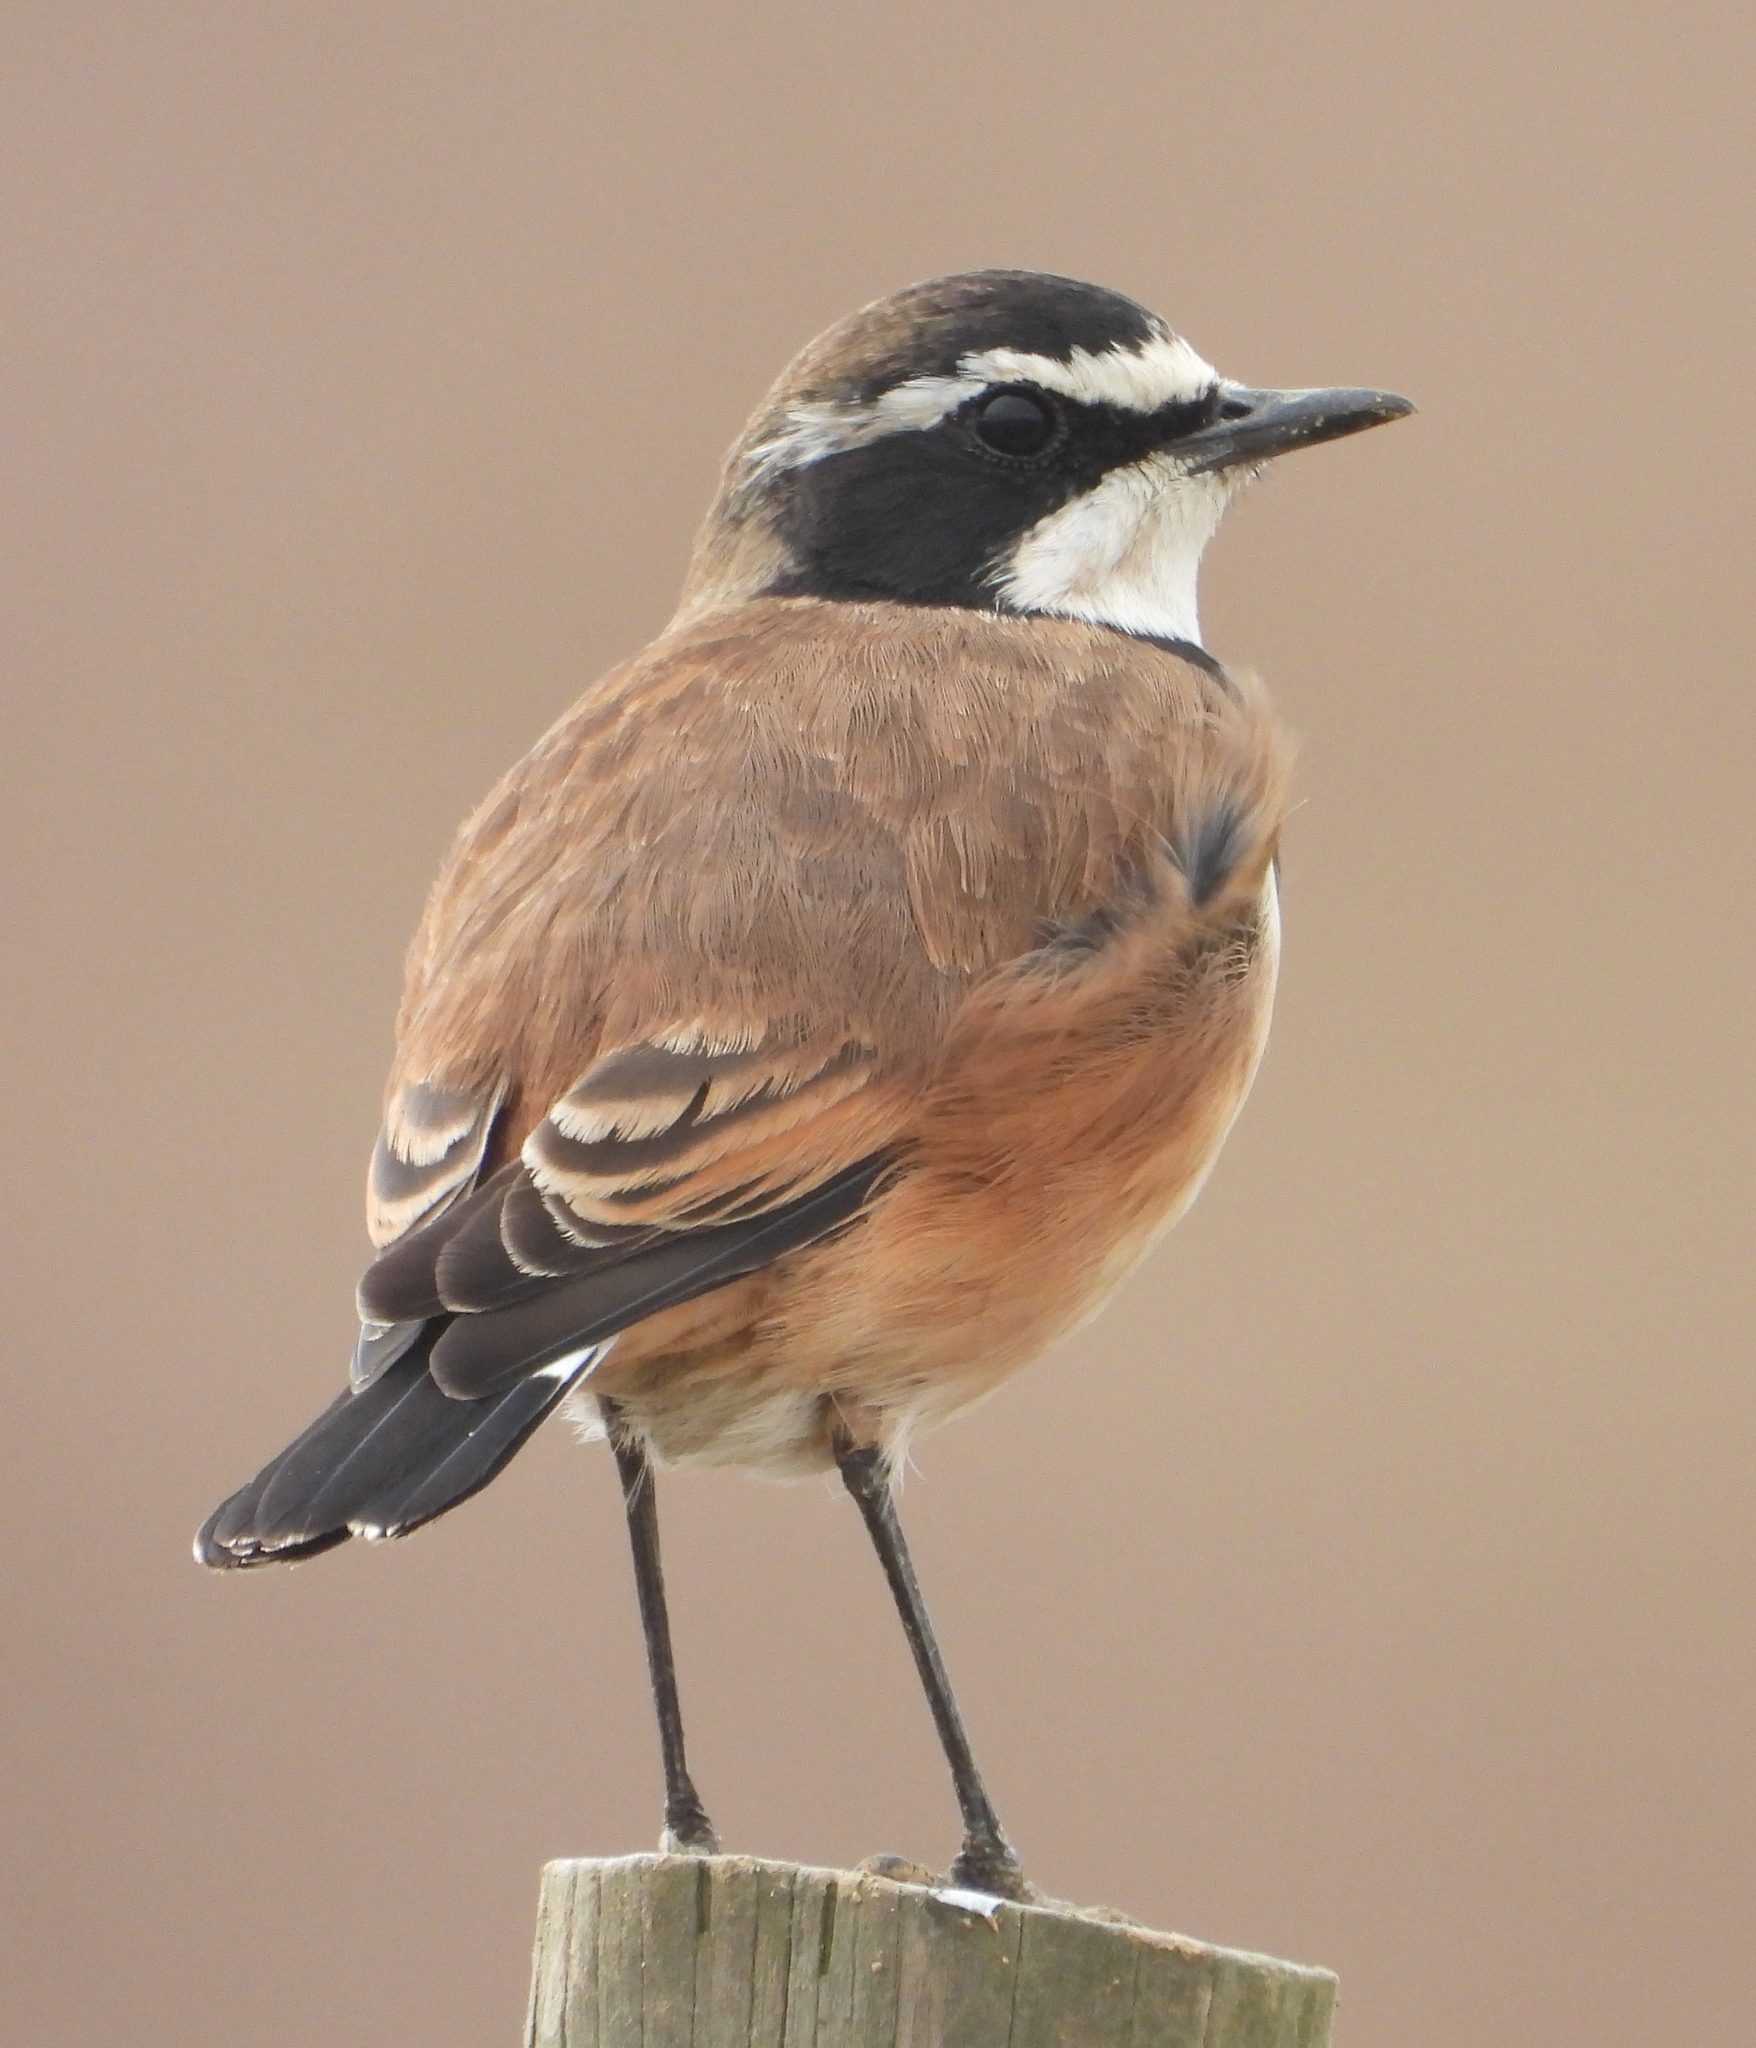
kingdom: Animalia
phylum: Chordata
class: Aves
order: Passeriformes
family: Muscicapidae
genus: Oenanthe
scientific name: Oenanthe pileata
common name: Capped wheatear
